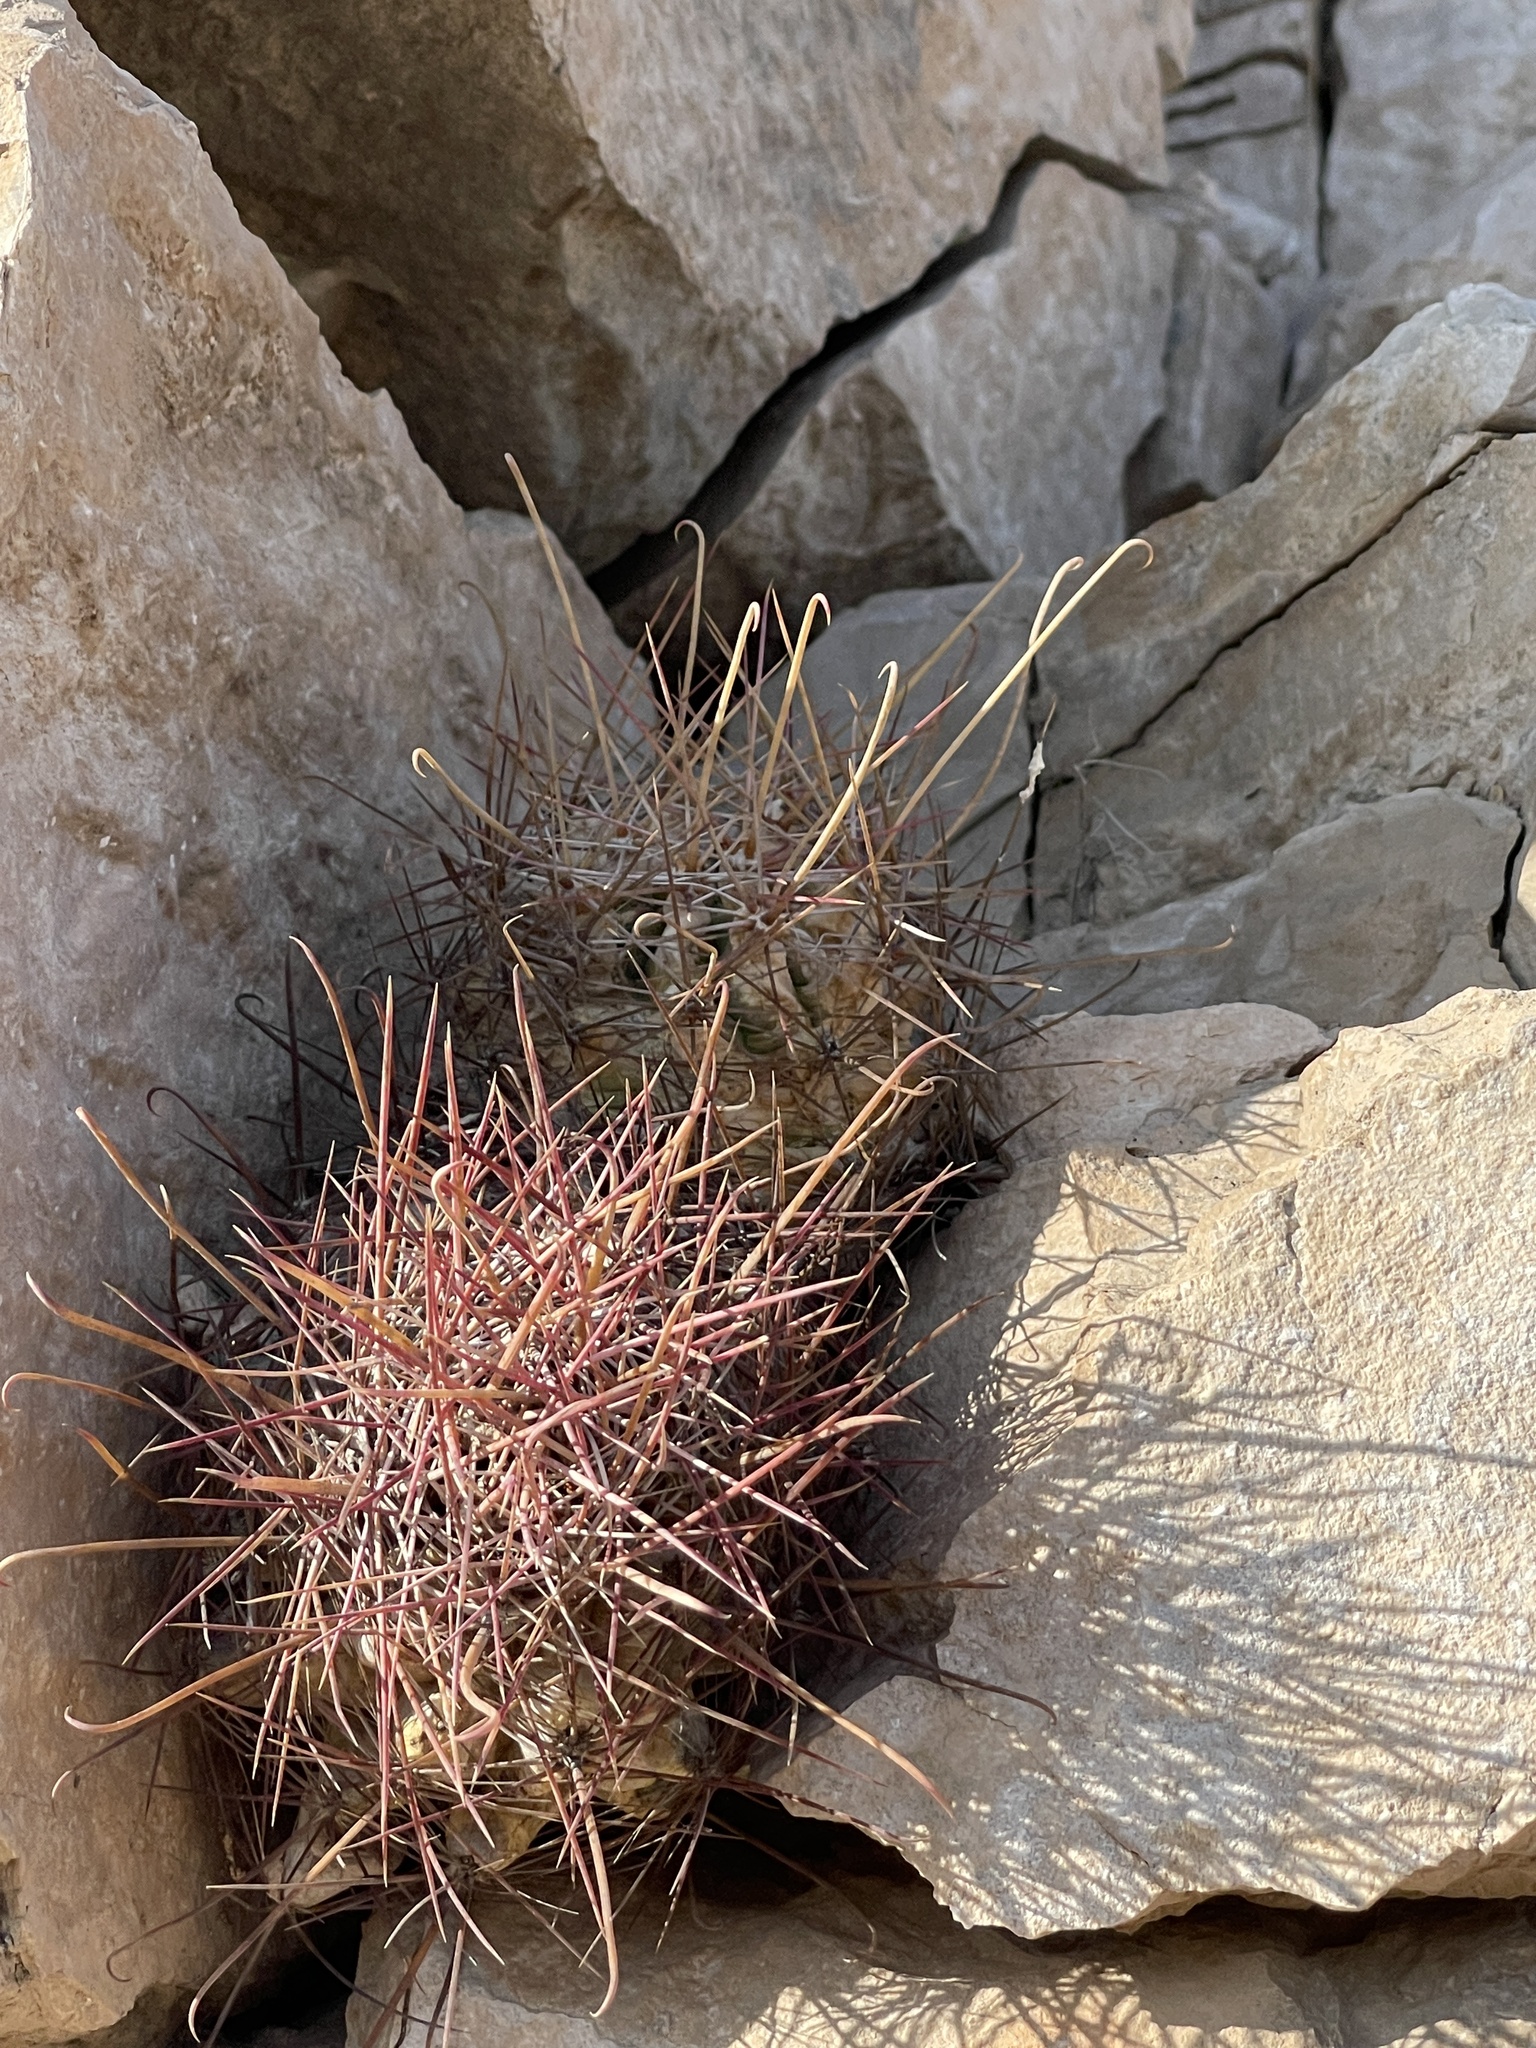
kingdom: Plantae
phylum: Tracheophyta
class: Magnoliopsida
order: Caryophyllales
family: Cactaceae
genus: Bisnaga
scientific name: Bisnaga hamatacantha
